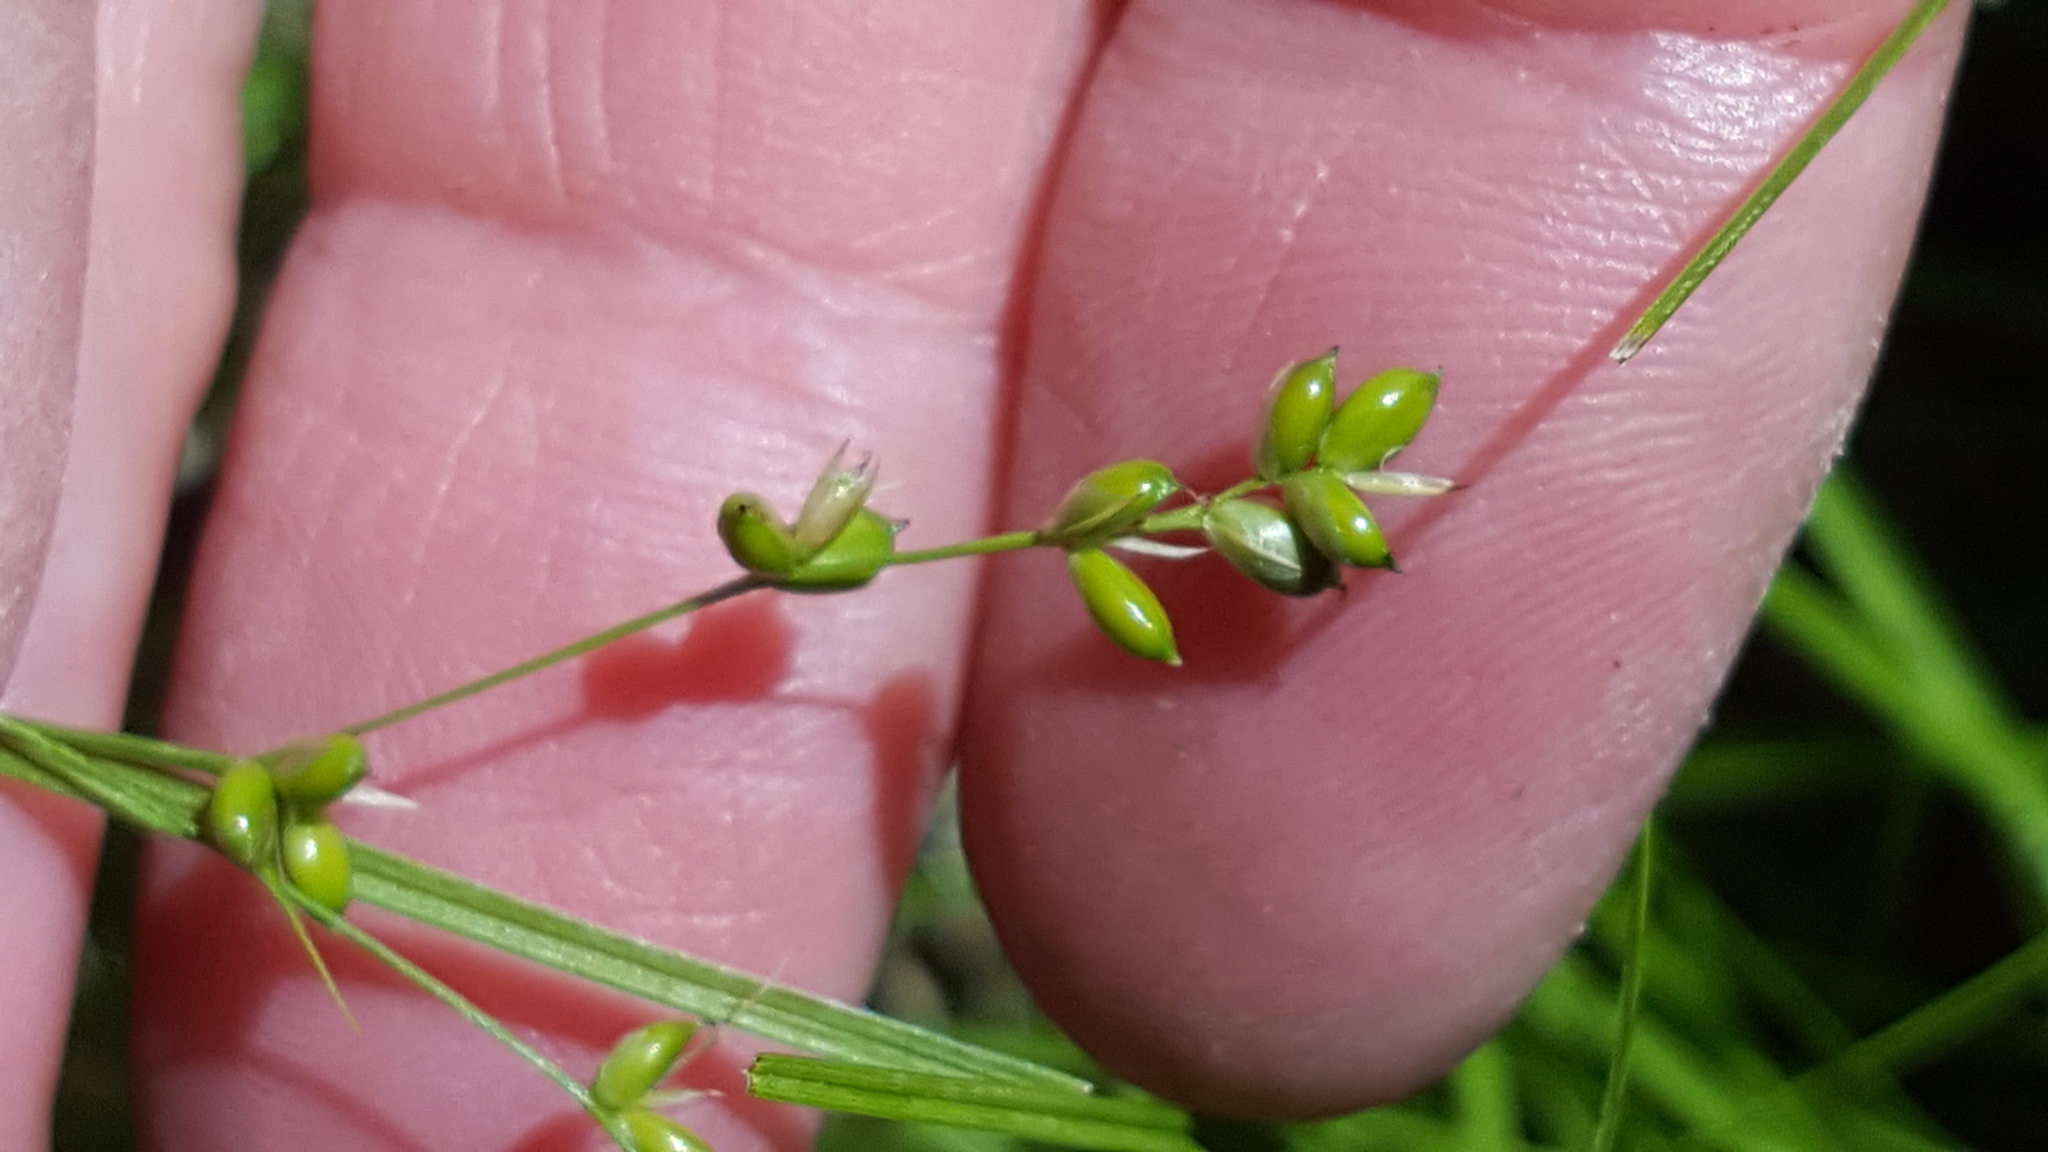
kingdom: Plantae
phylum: Tracheophyta
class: Liliopsida
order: Poales
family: Cyperaceae
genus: Carex
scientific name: Carex disperma
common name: Short-leaved sedge
